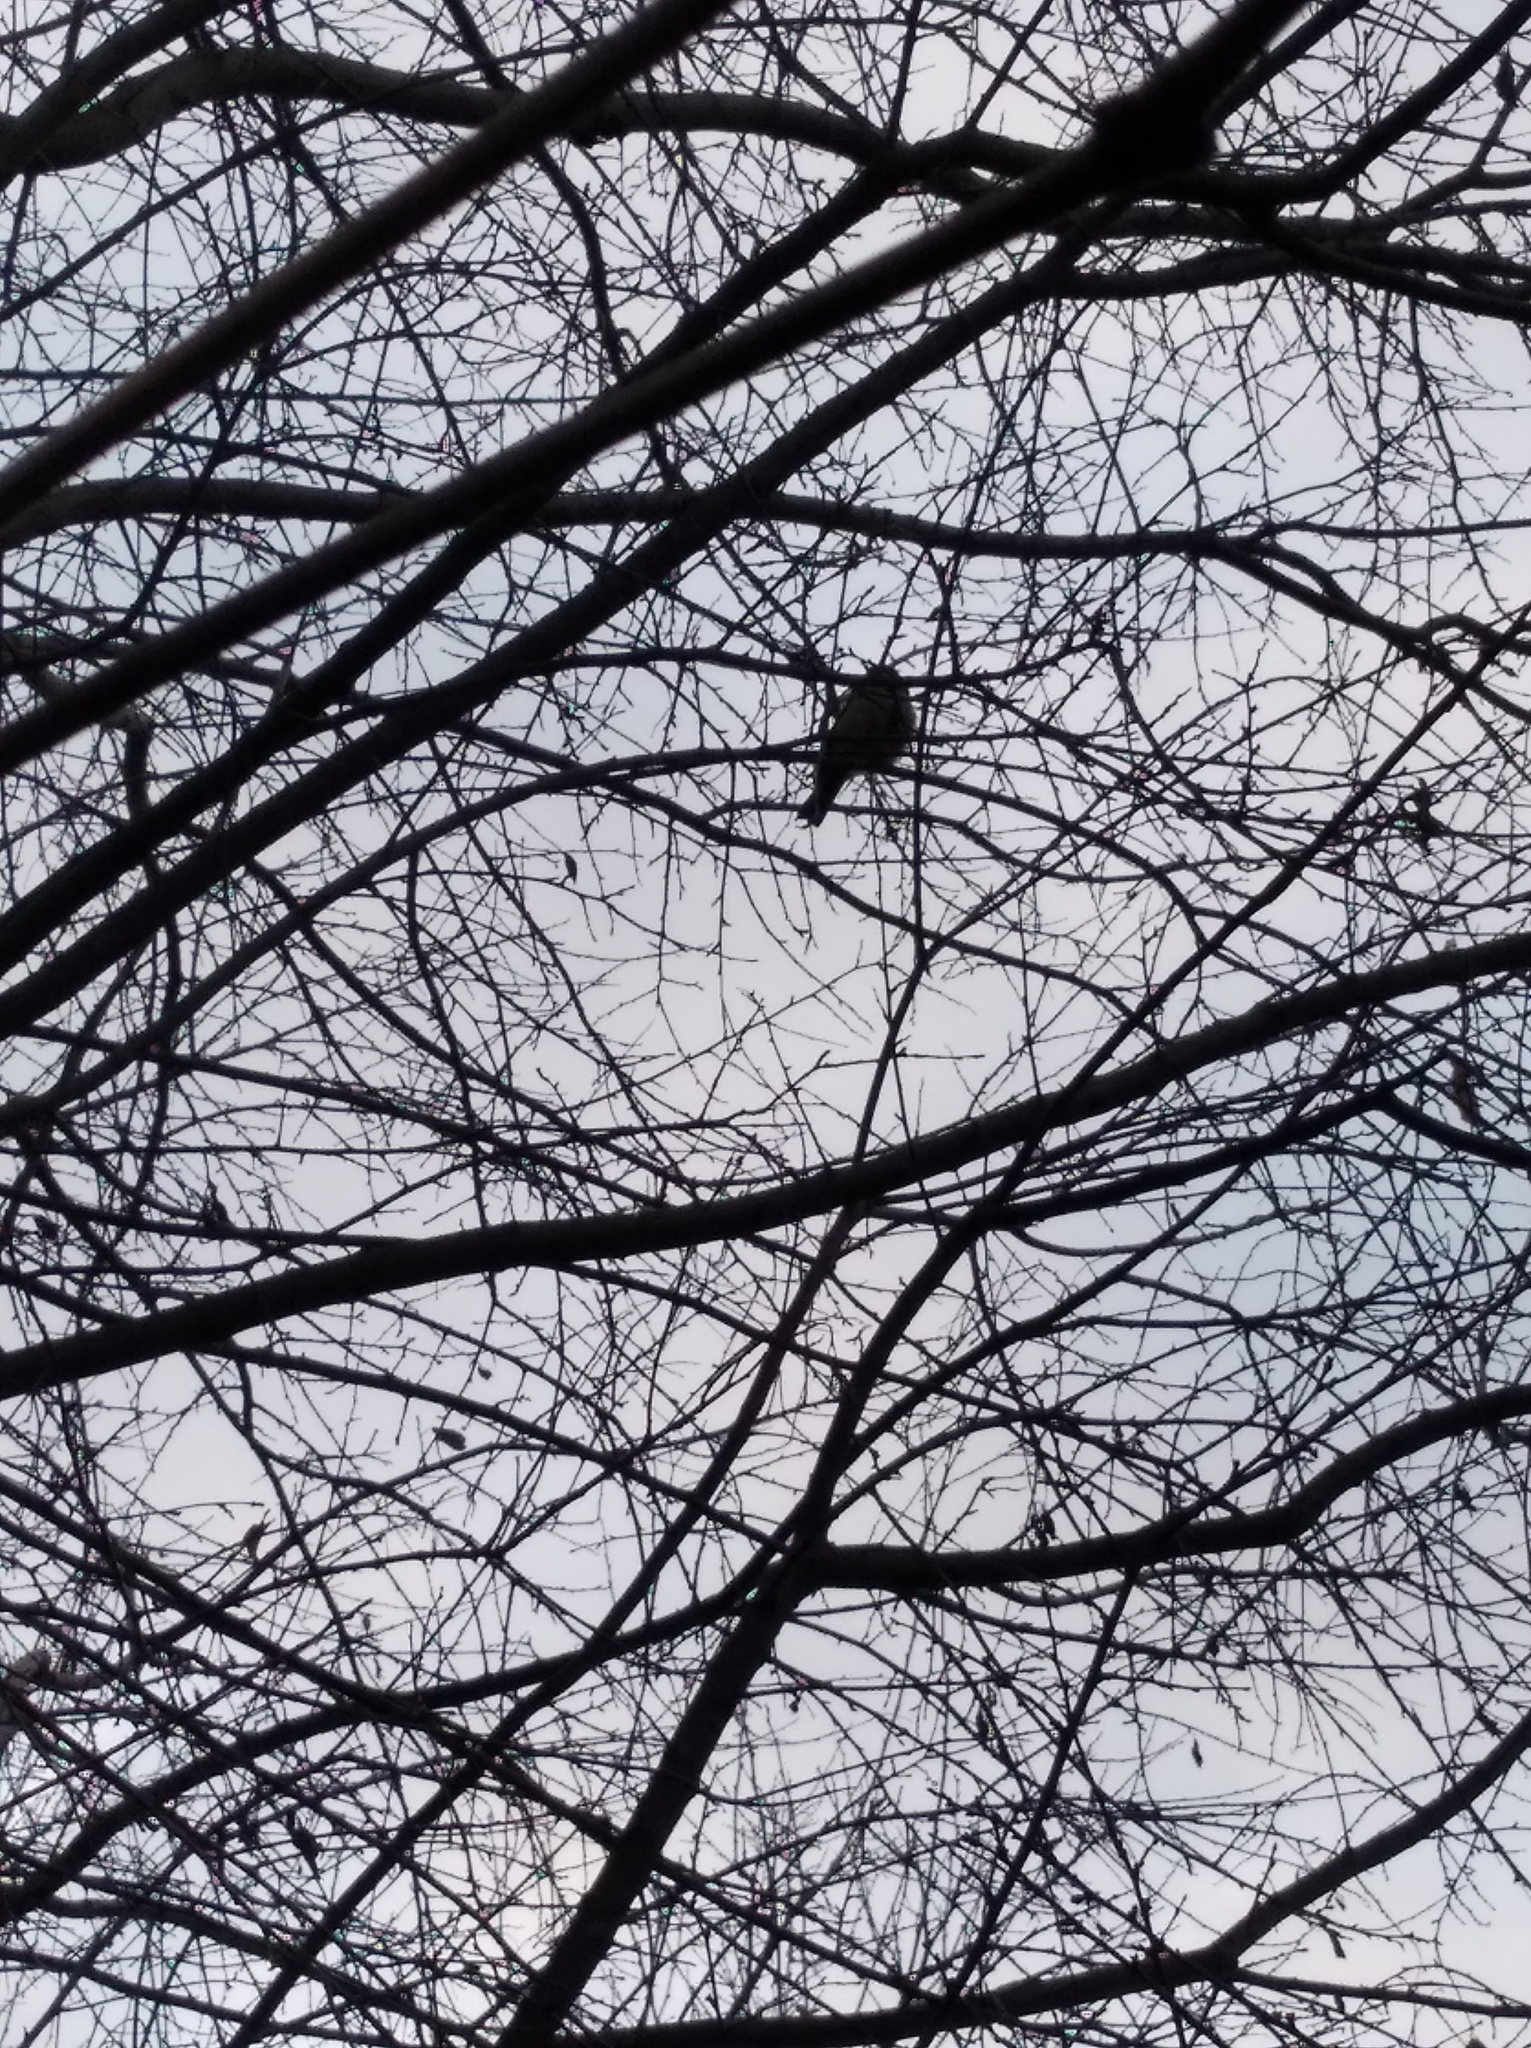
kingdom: Animalia
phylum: Chordata
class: Aves
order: Passeriformes
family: Paridae
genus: Parus
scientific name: Parus major
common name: Great tit
